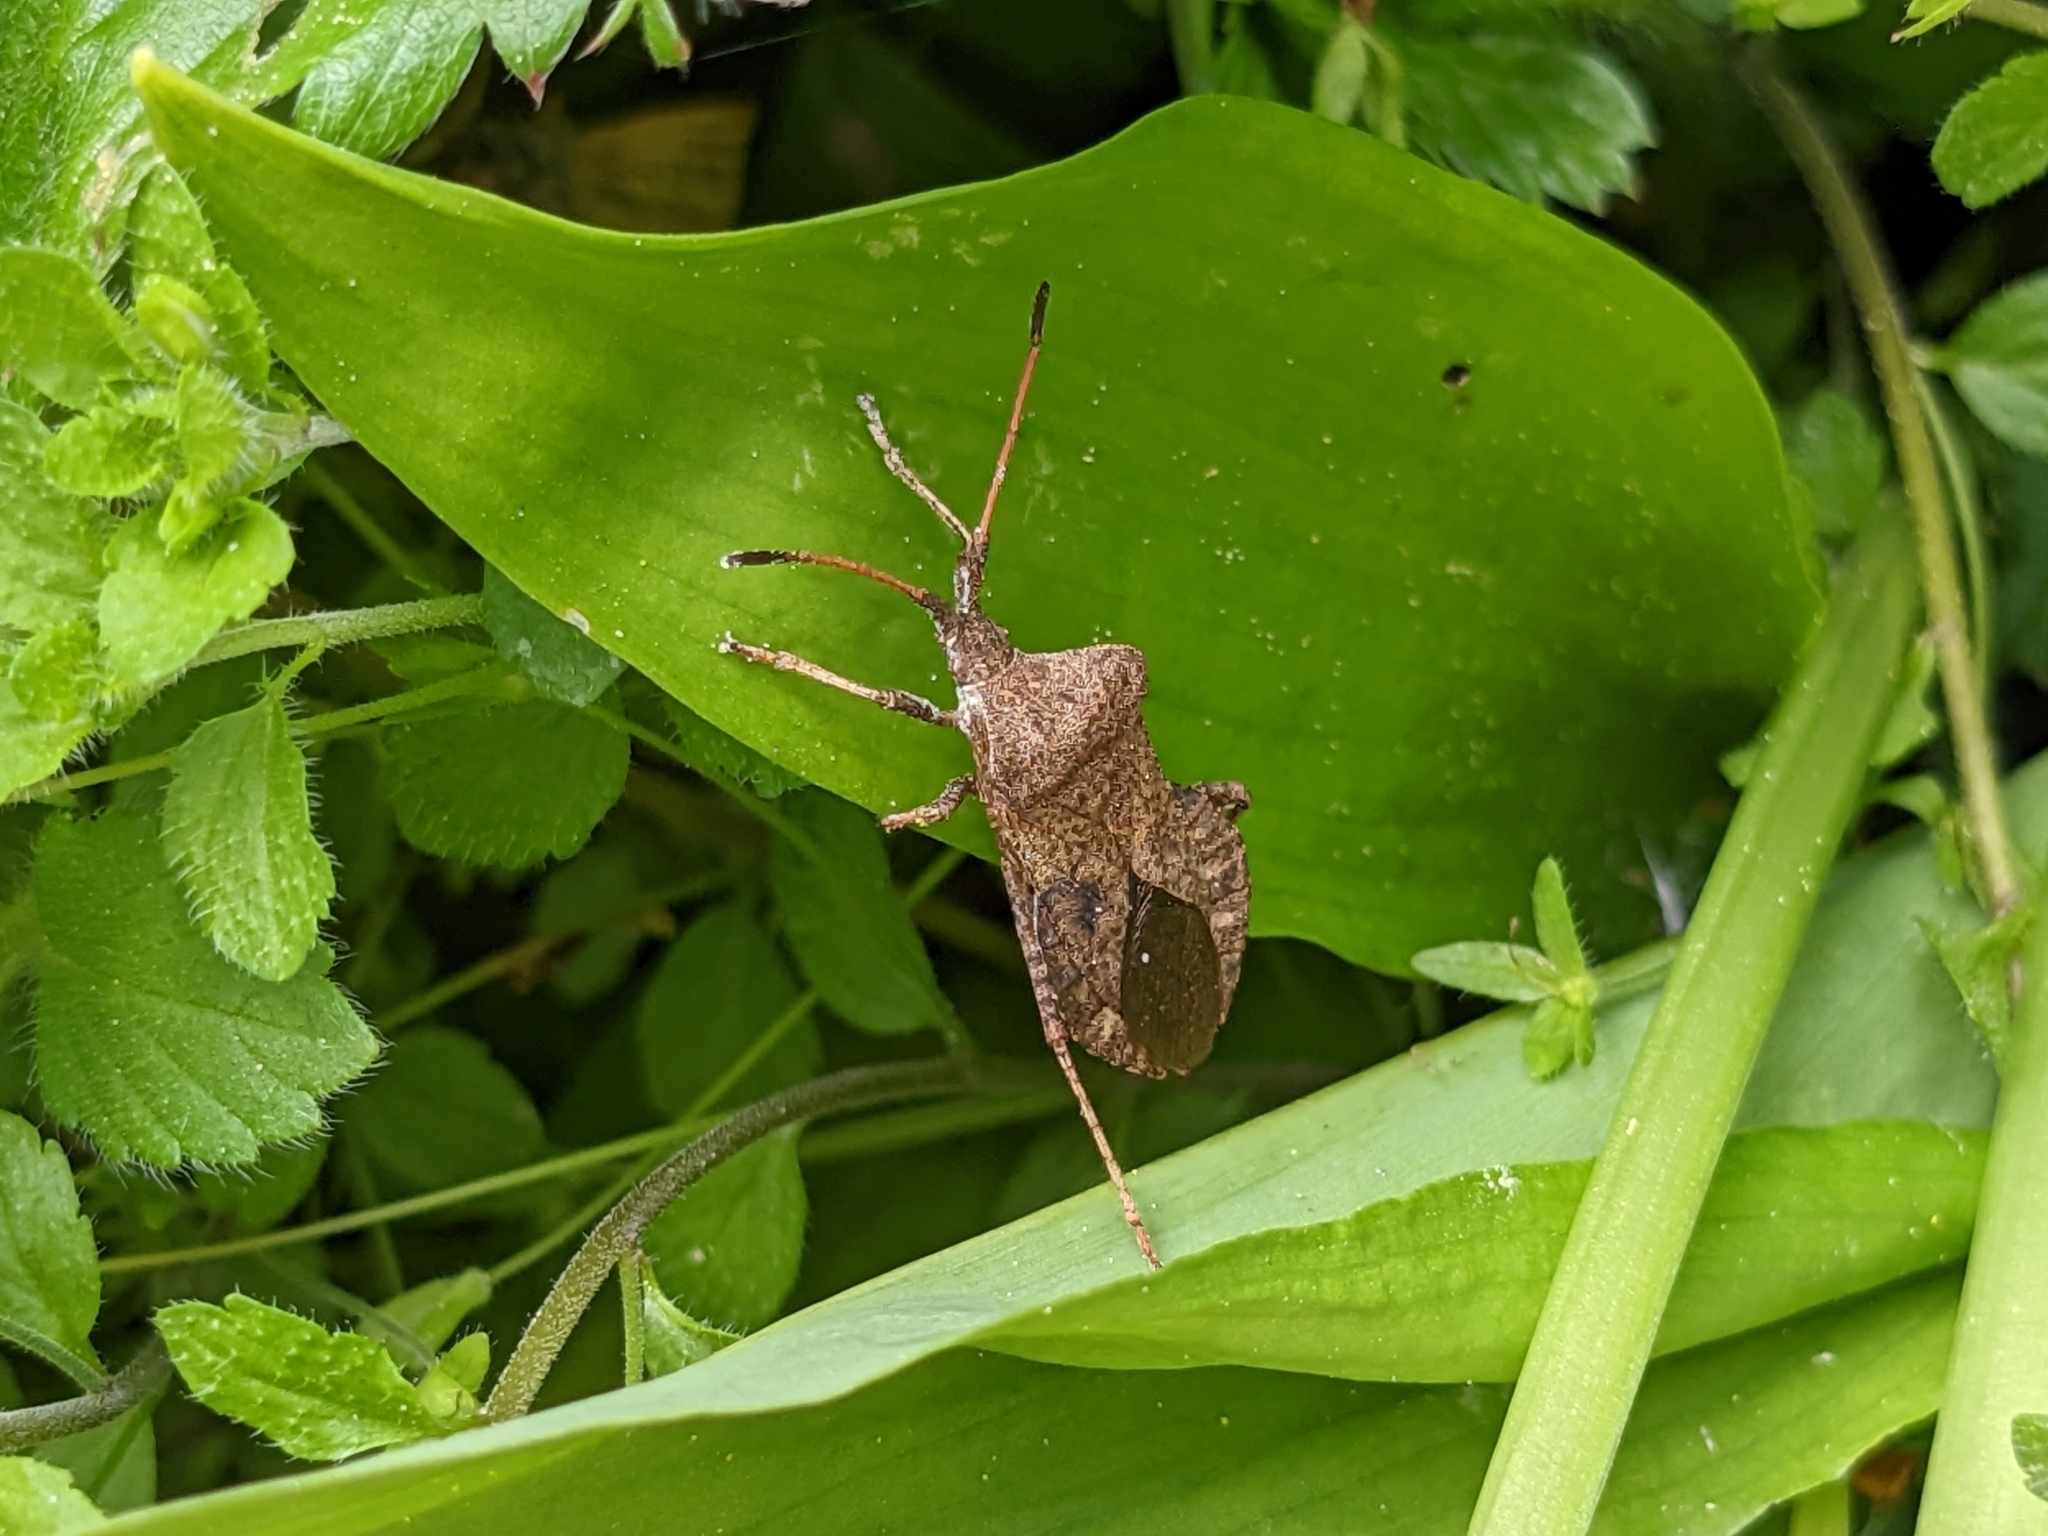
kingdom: Animalia
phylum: Arthropoda
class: Insecta
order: Hemiptera
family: Coreidae
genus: Coreus
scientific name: Coreus marginatus
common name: Dock bug
